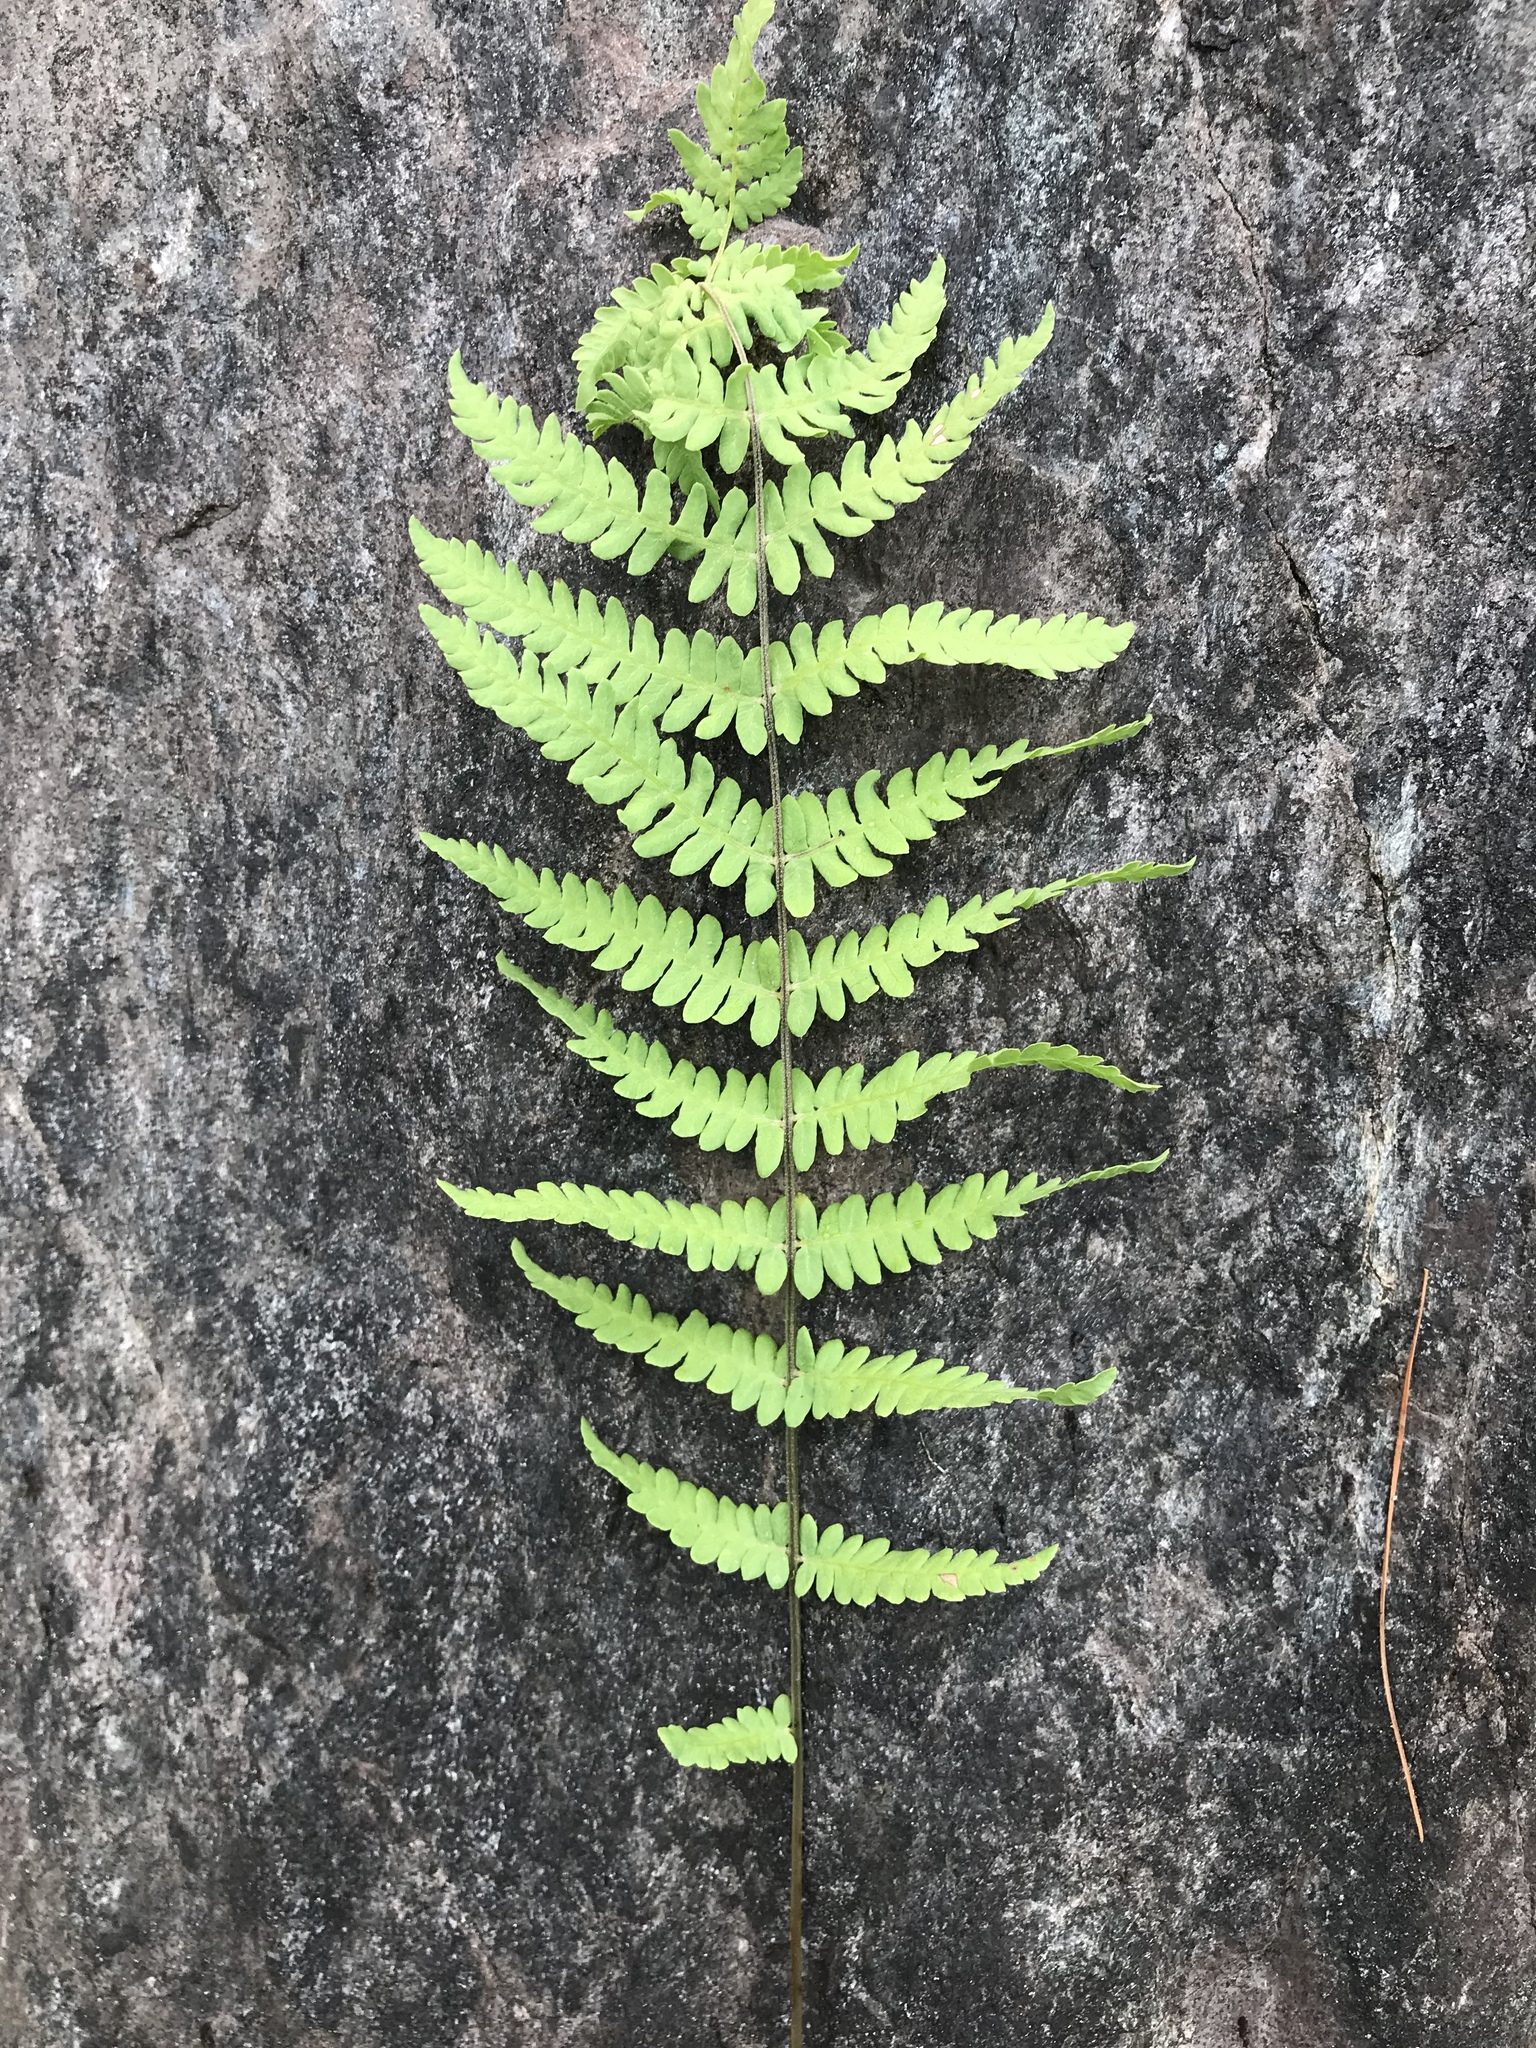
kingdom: Plantae
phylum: Tracheophyta
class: Polypodiopsida
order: Polypodiales
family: Thelypteridaceae
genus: Thelypteris
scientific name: Thelypteris palustris
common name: Marsh fern
